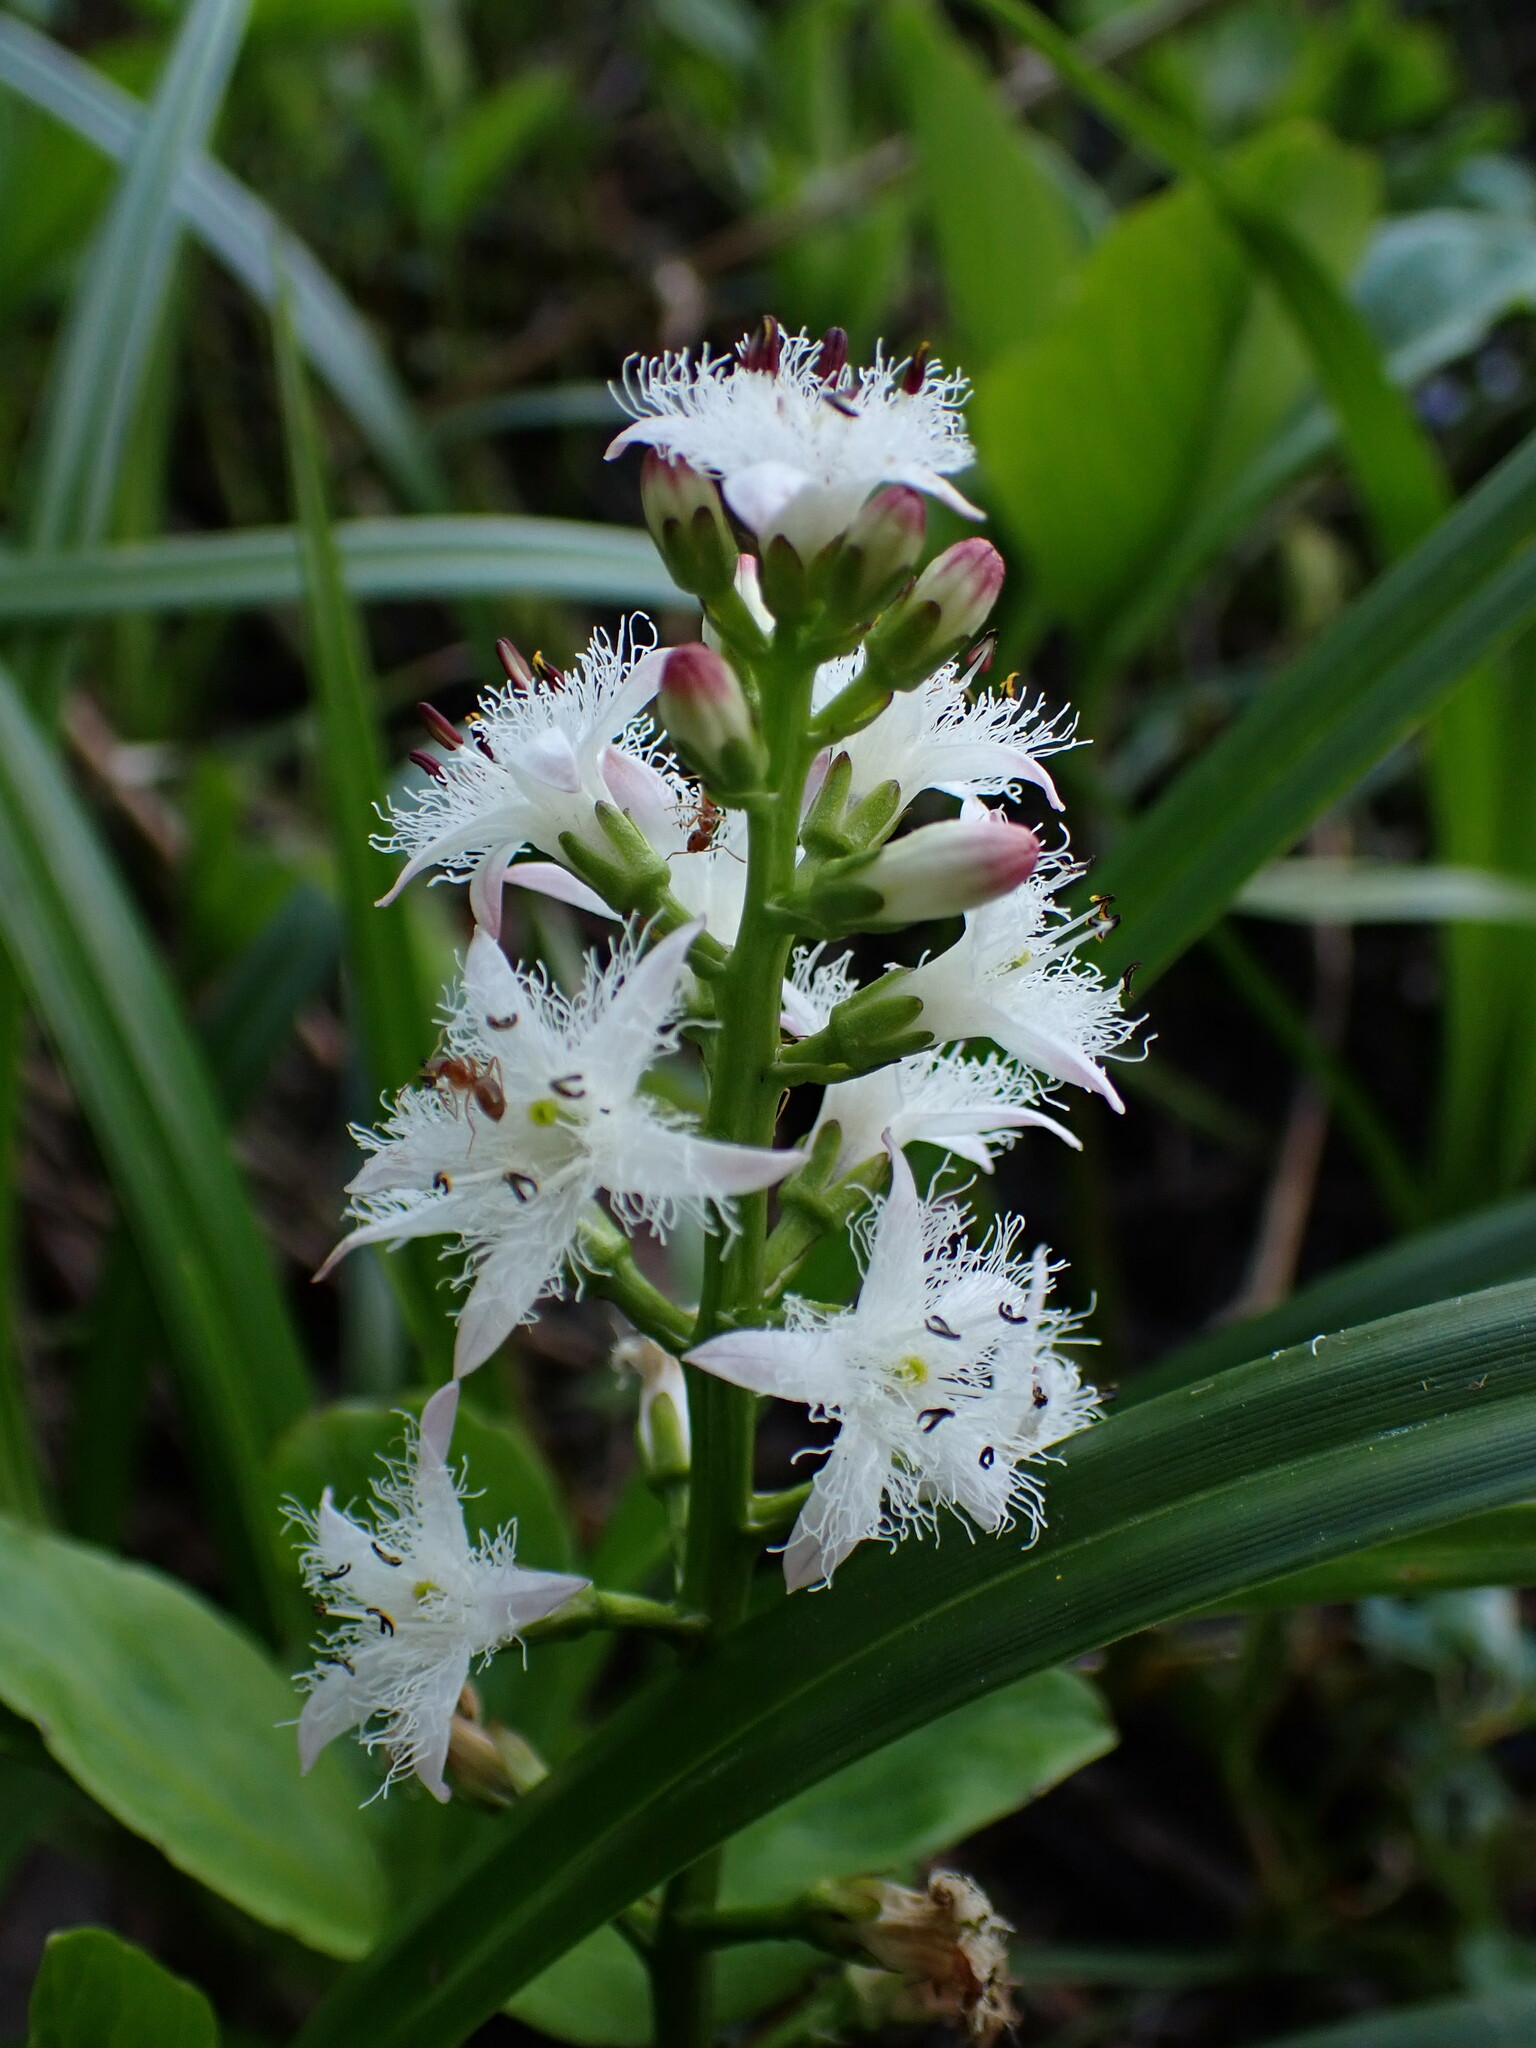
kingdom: Plantae
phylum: Tracheophyta
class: Magnoliopsida
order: Asterales
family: Menyanthaceae
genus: Menyanthes
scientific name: Menyanthes trifoliata
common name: Bogbean
